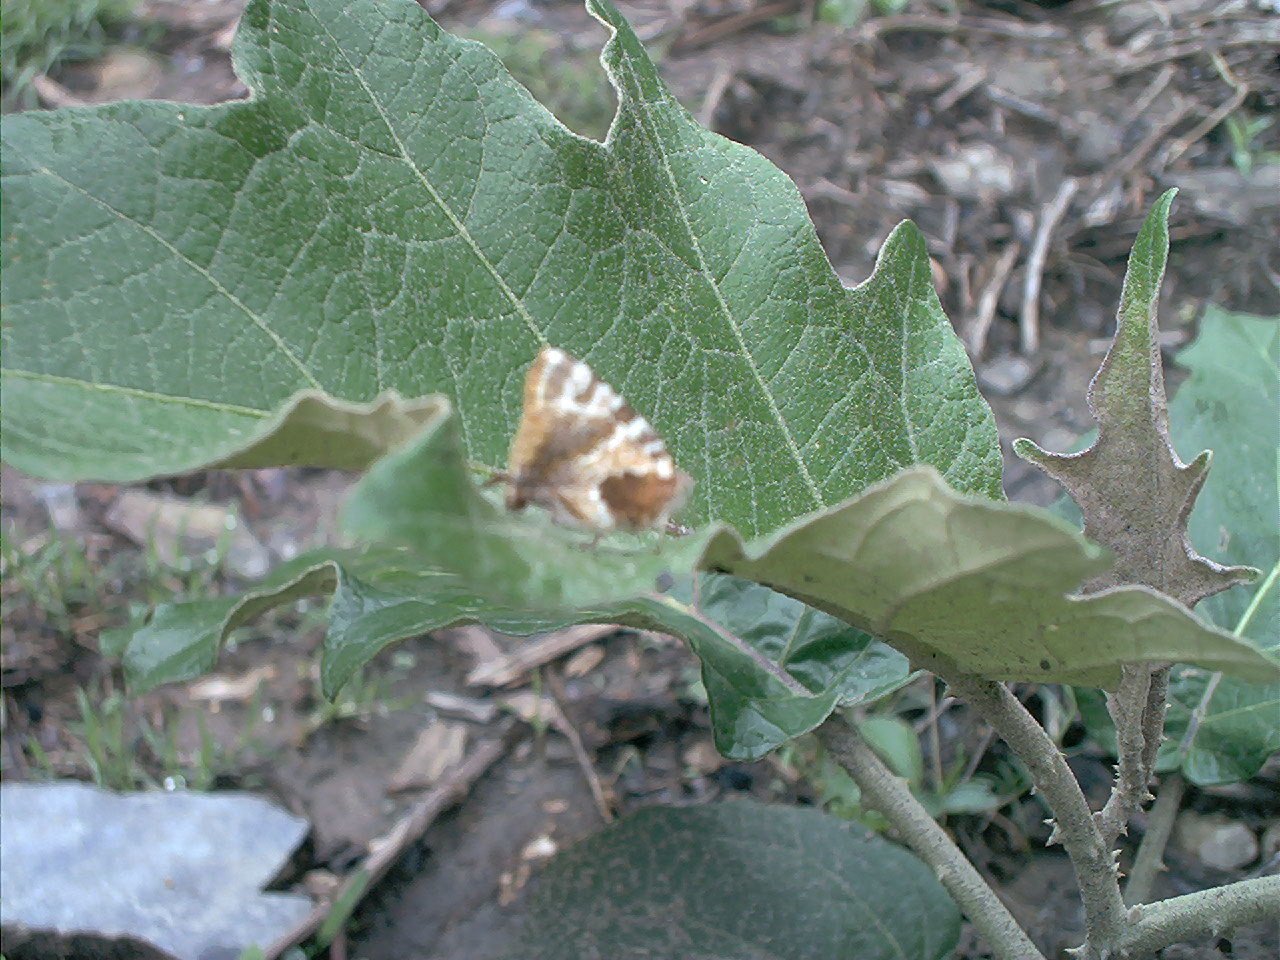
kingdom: Animalia
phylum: Arthropoda
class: Insecta
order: Lepidoptera
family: Lycaenidae
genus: Arawacus
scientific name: Arawacus ellida
